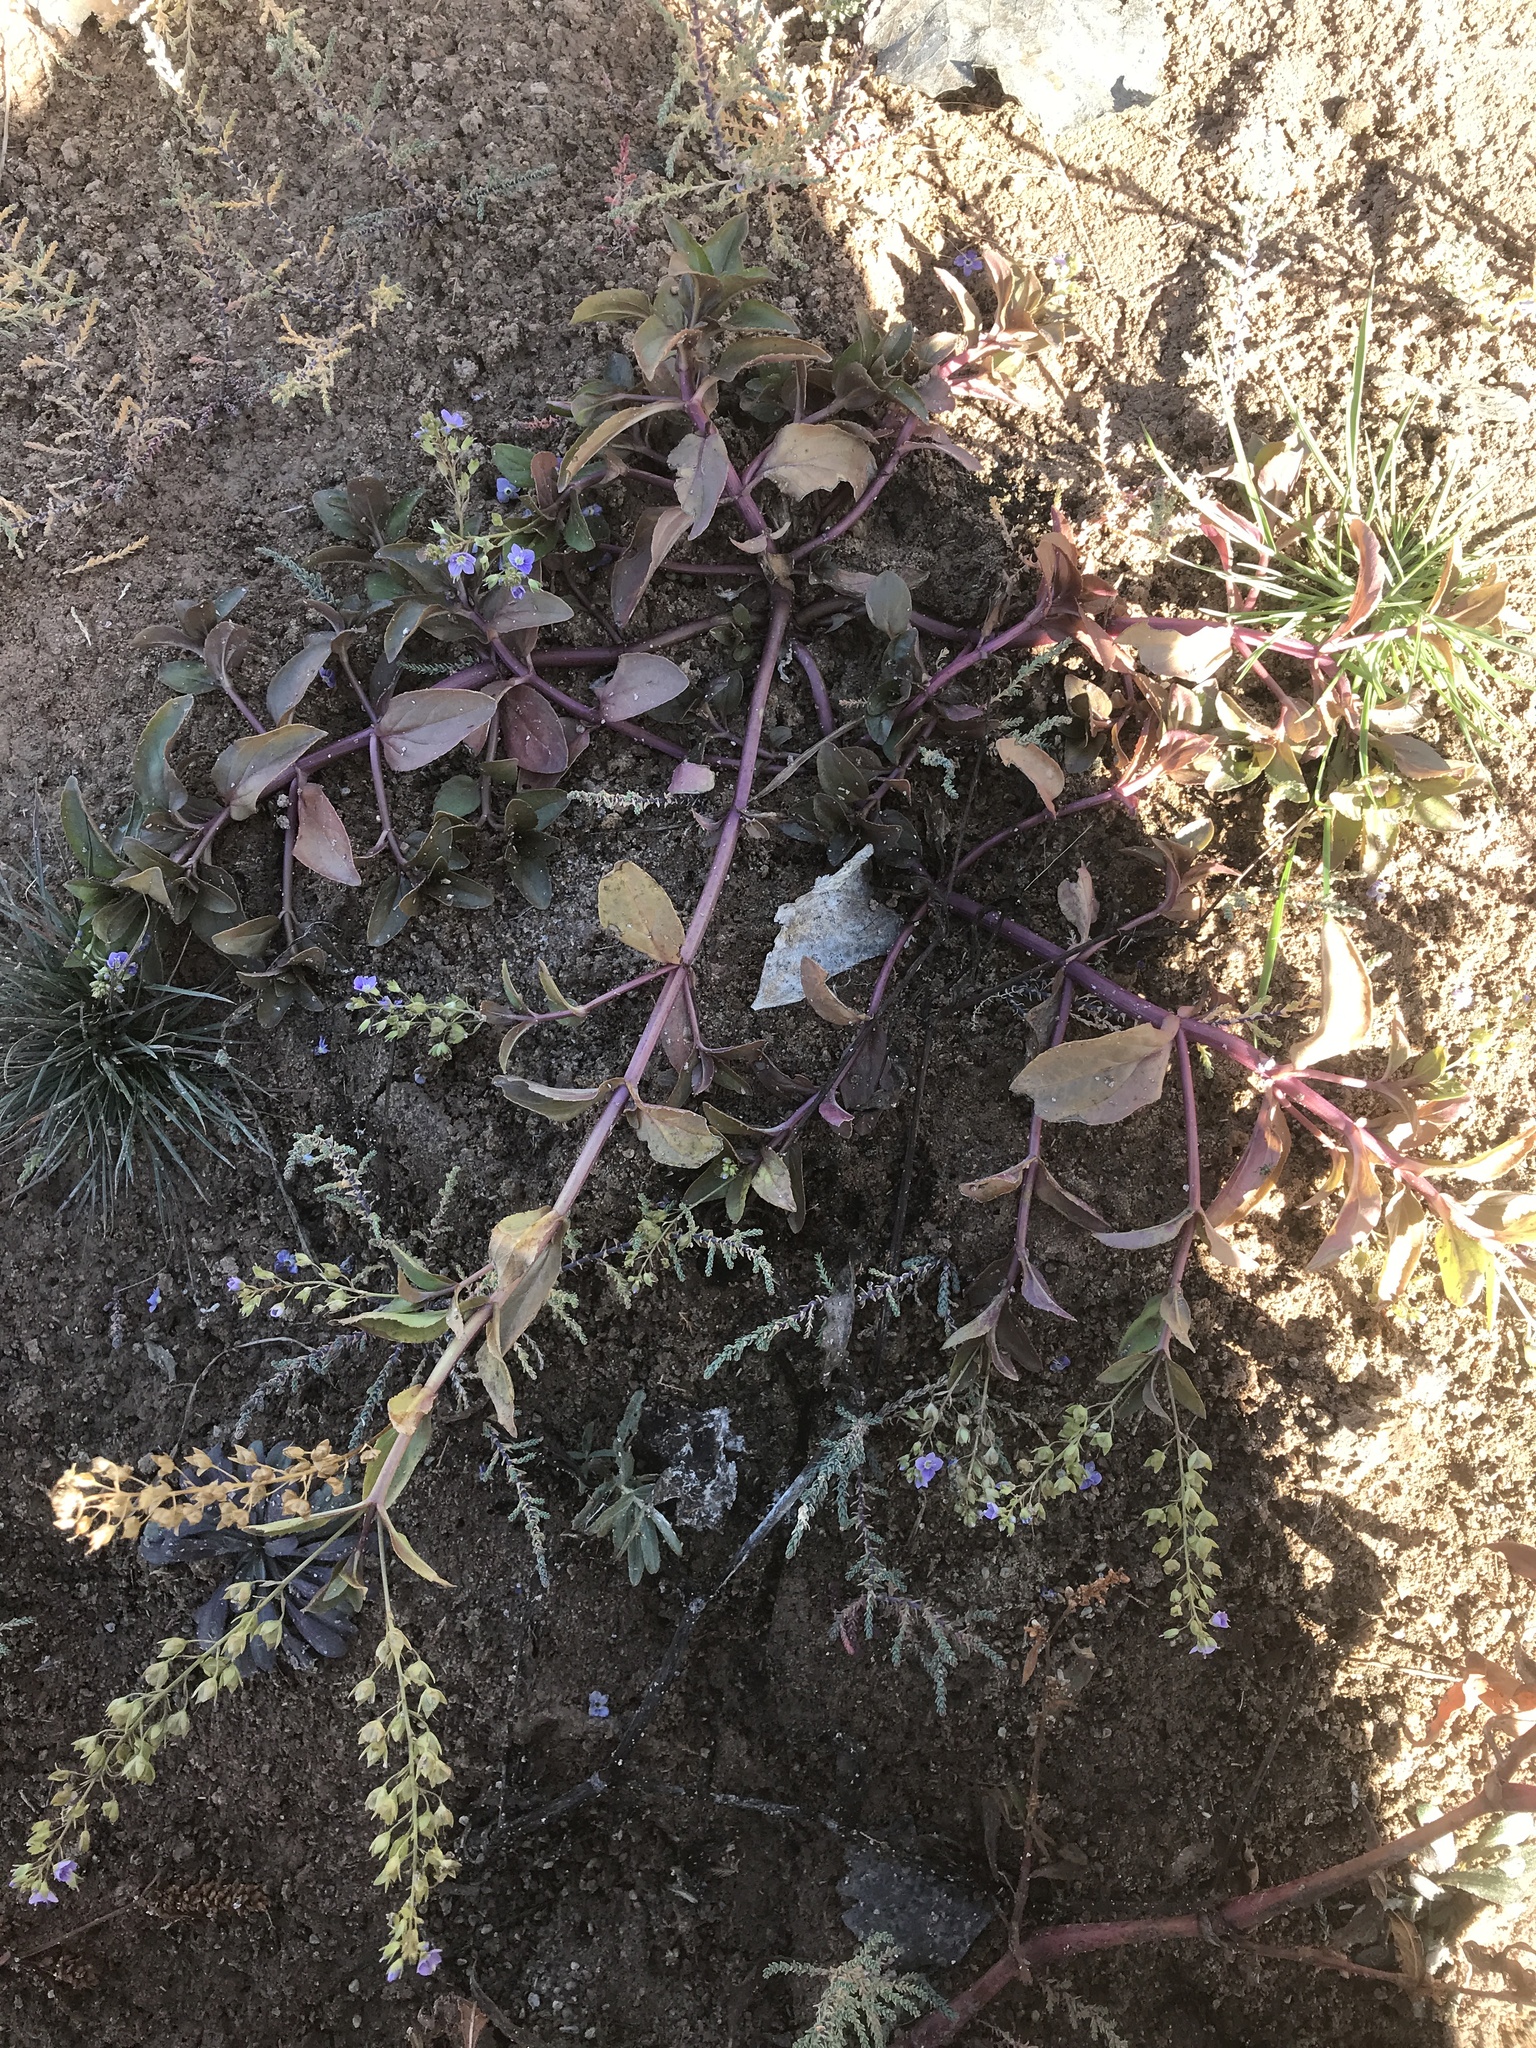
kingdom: Plantae
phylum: Tracheophyta
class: Magnoliopsida
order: Lamiales
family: Plantaginaceae
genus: Veronica
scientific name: Veronica anagallis-aquatica
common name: Water speedwell
